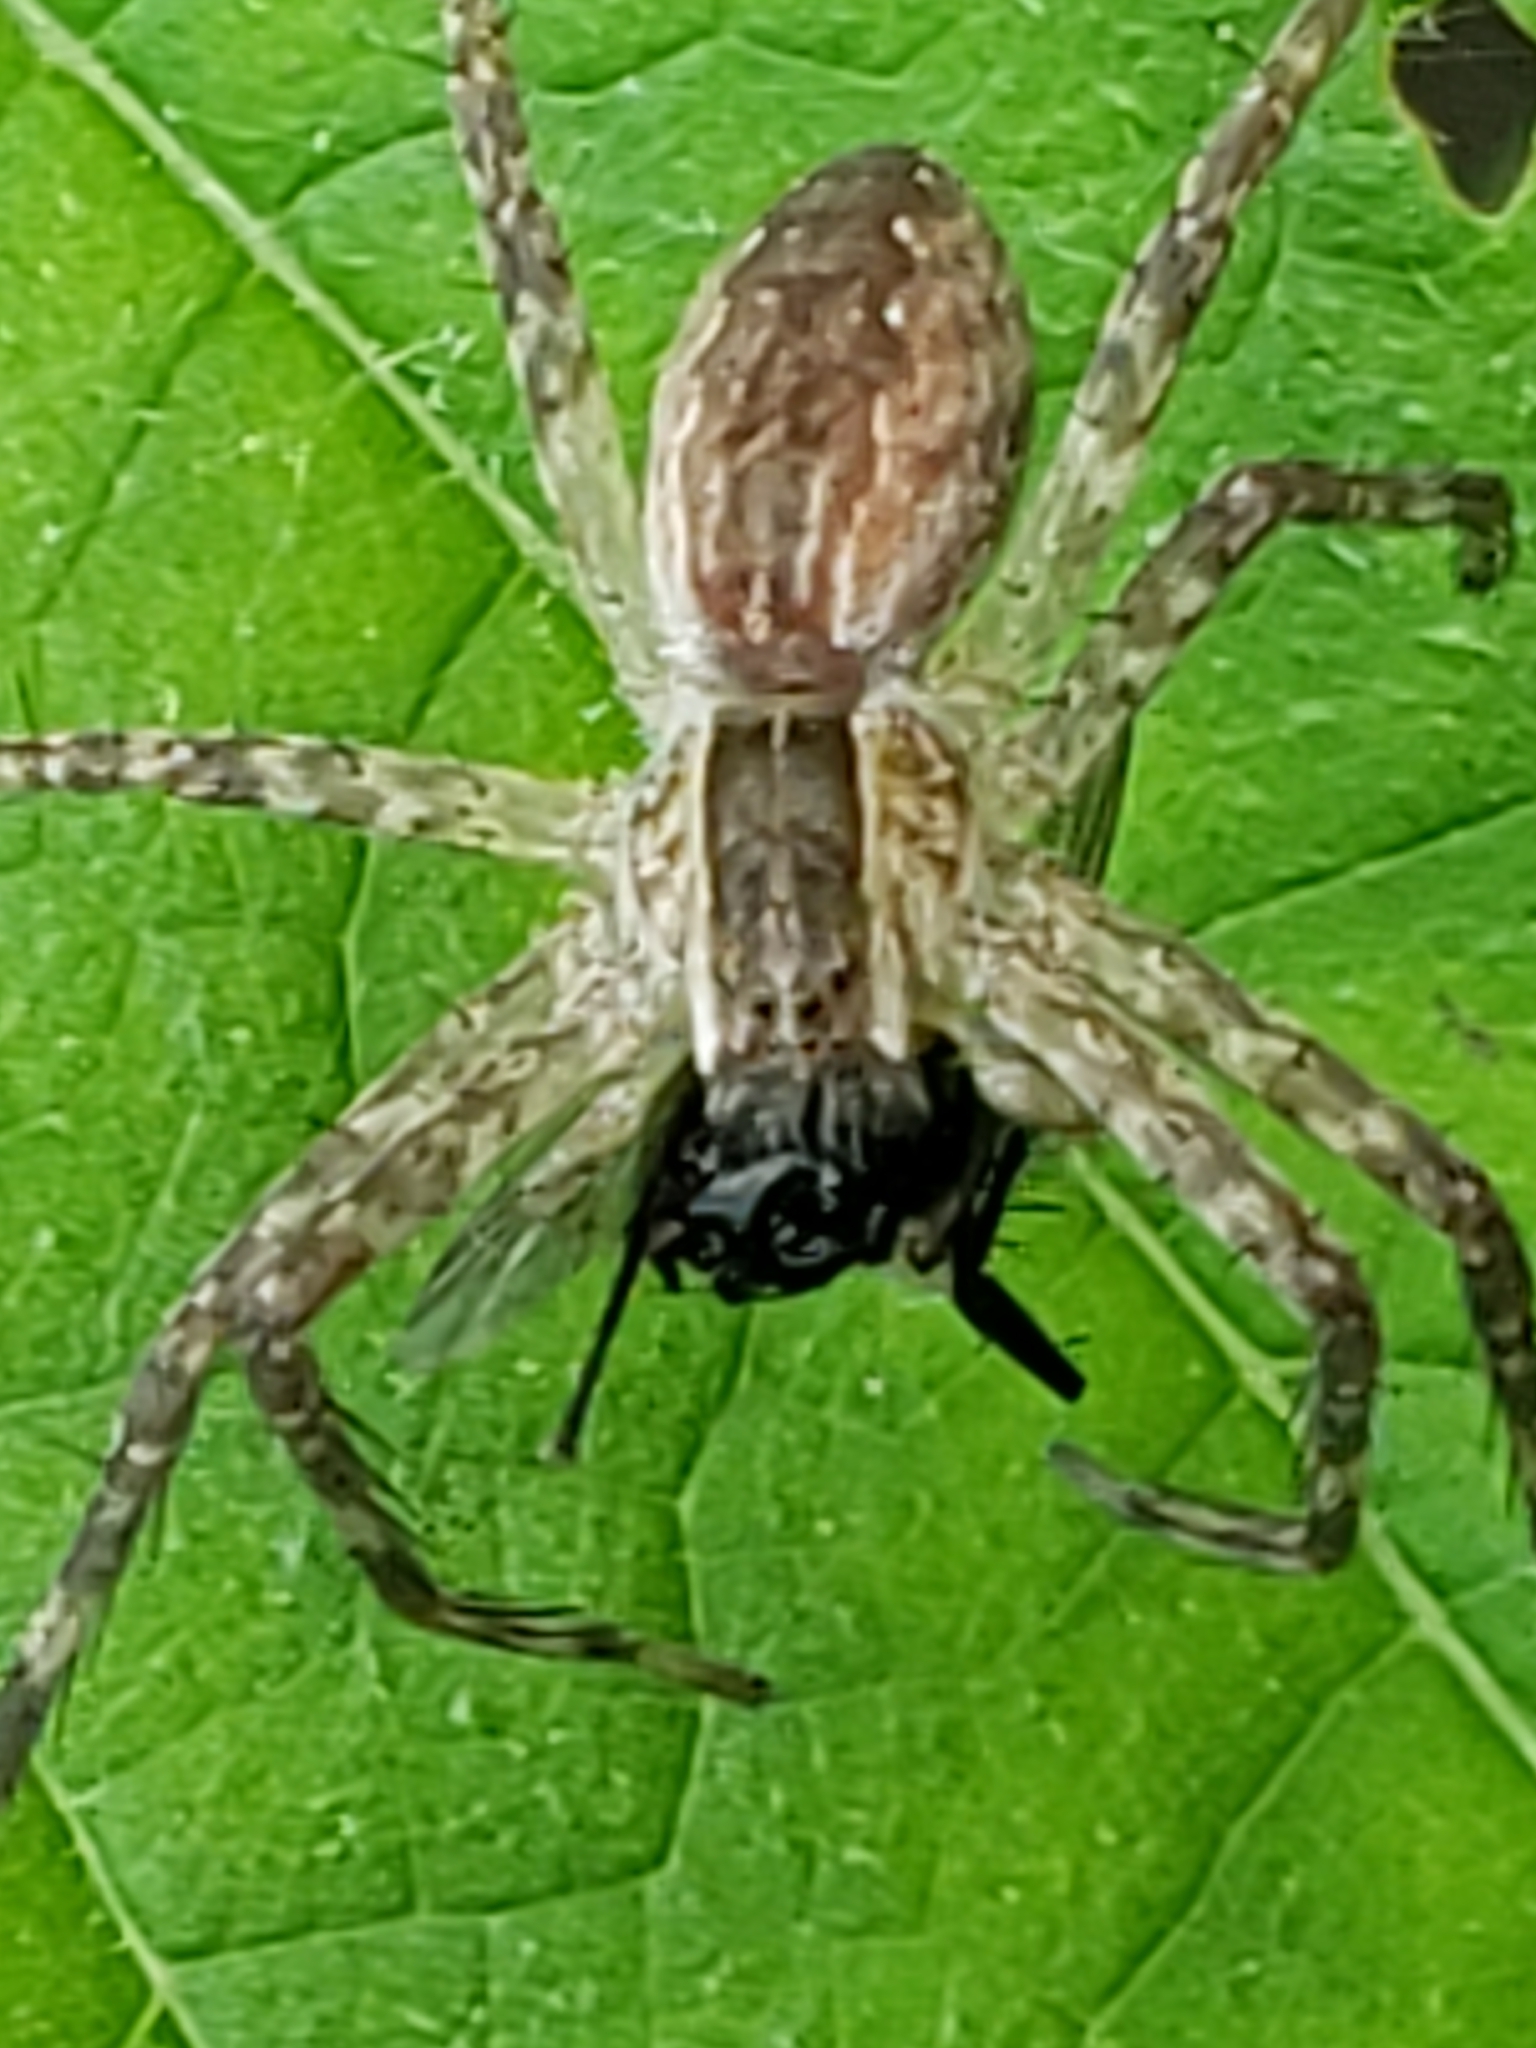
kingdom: Animalia
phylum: Arthropoda
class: Arachnida
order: Araneae
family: Pisauridae
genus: Pisaurina
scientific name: Pisaurina mira
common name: American nursery web spider
